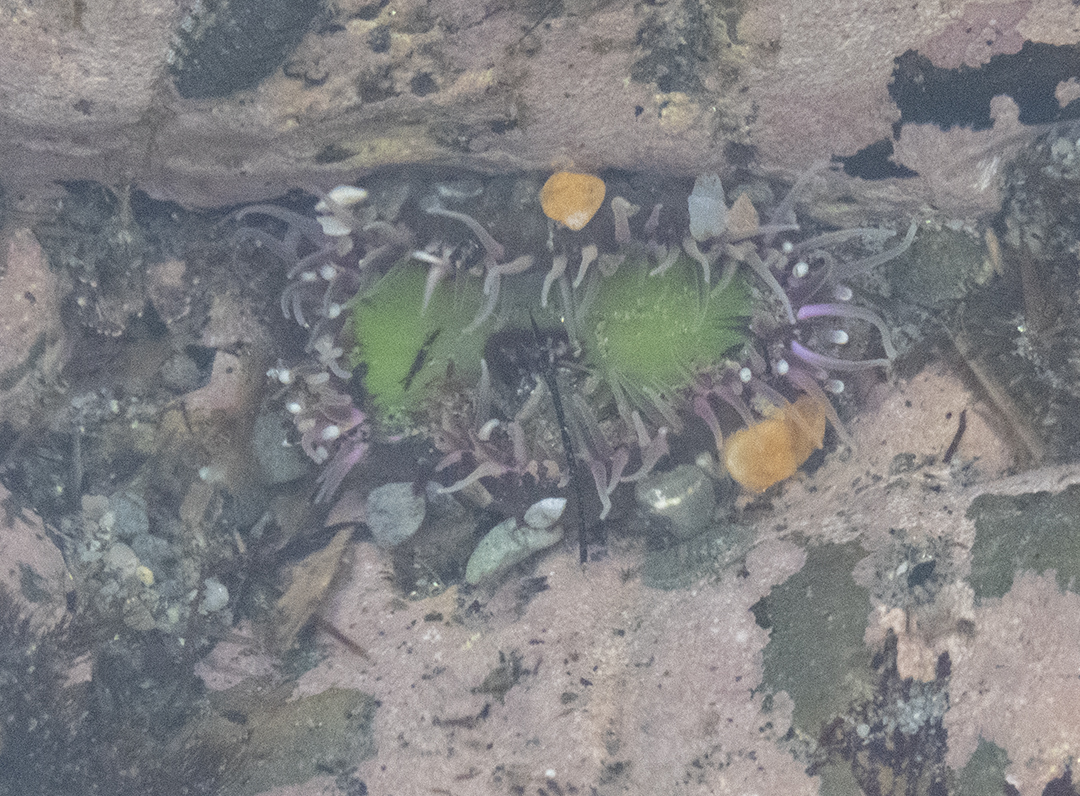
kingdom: Animalia
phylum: Cnidaria
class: Anthozoa
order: Actiniaria
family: Actiniidae
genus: Oulactis
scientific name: Oulactis magna
